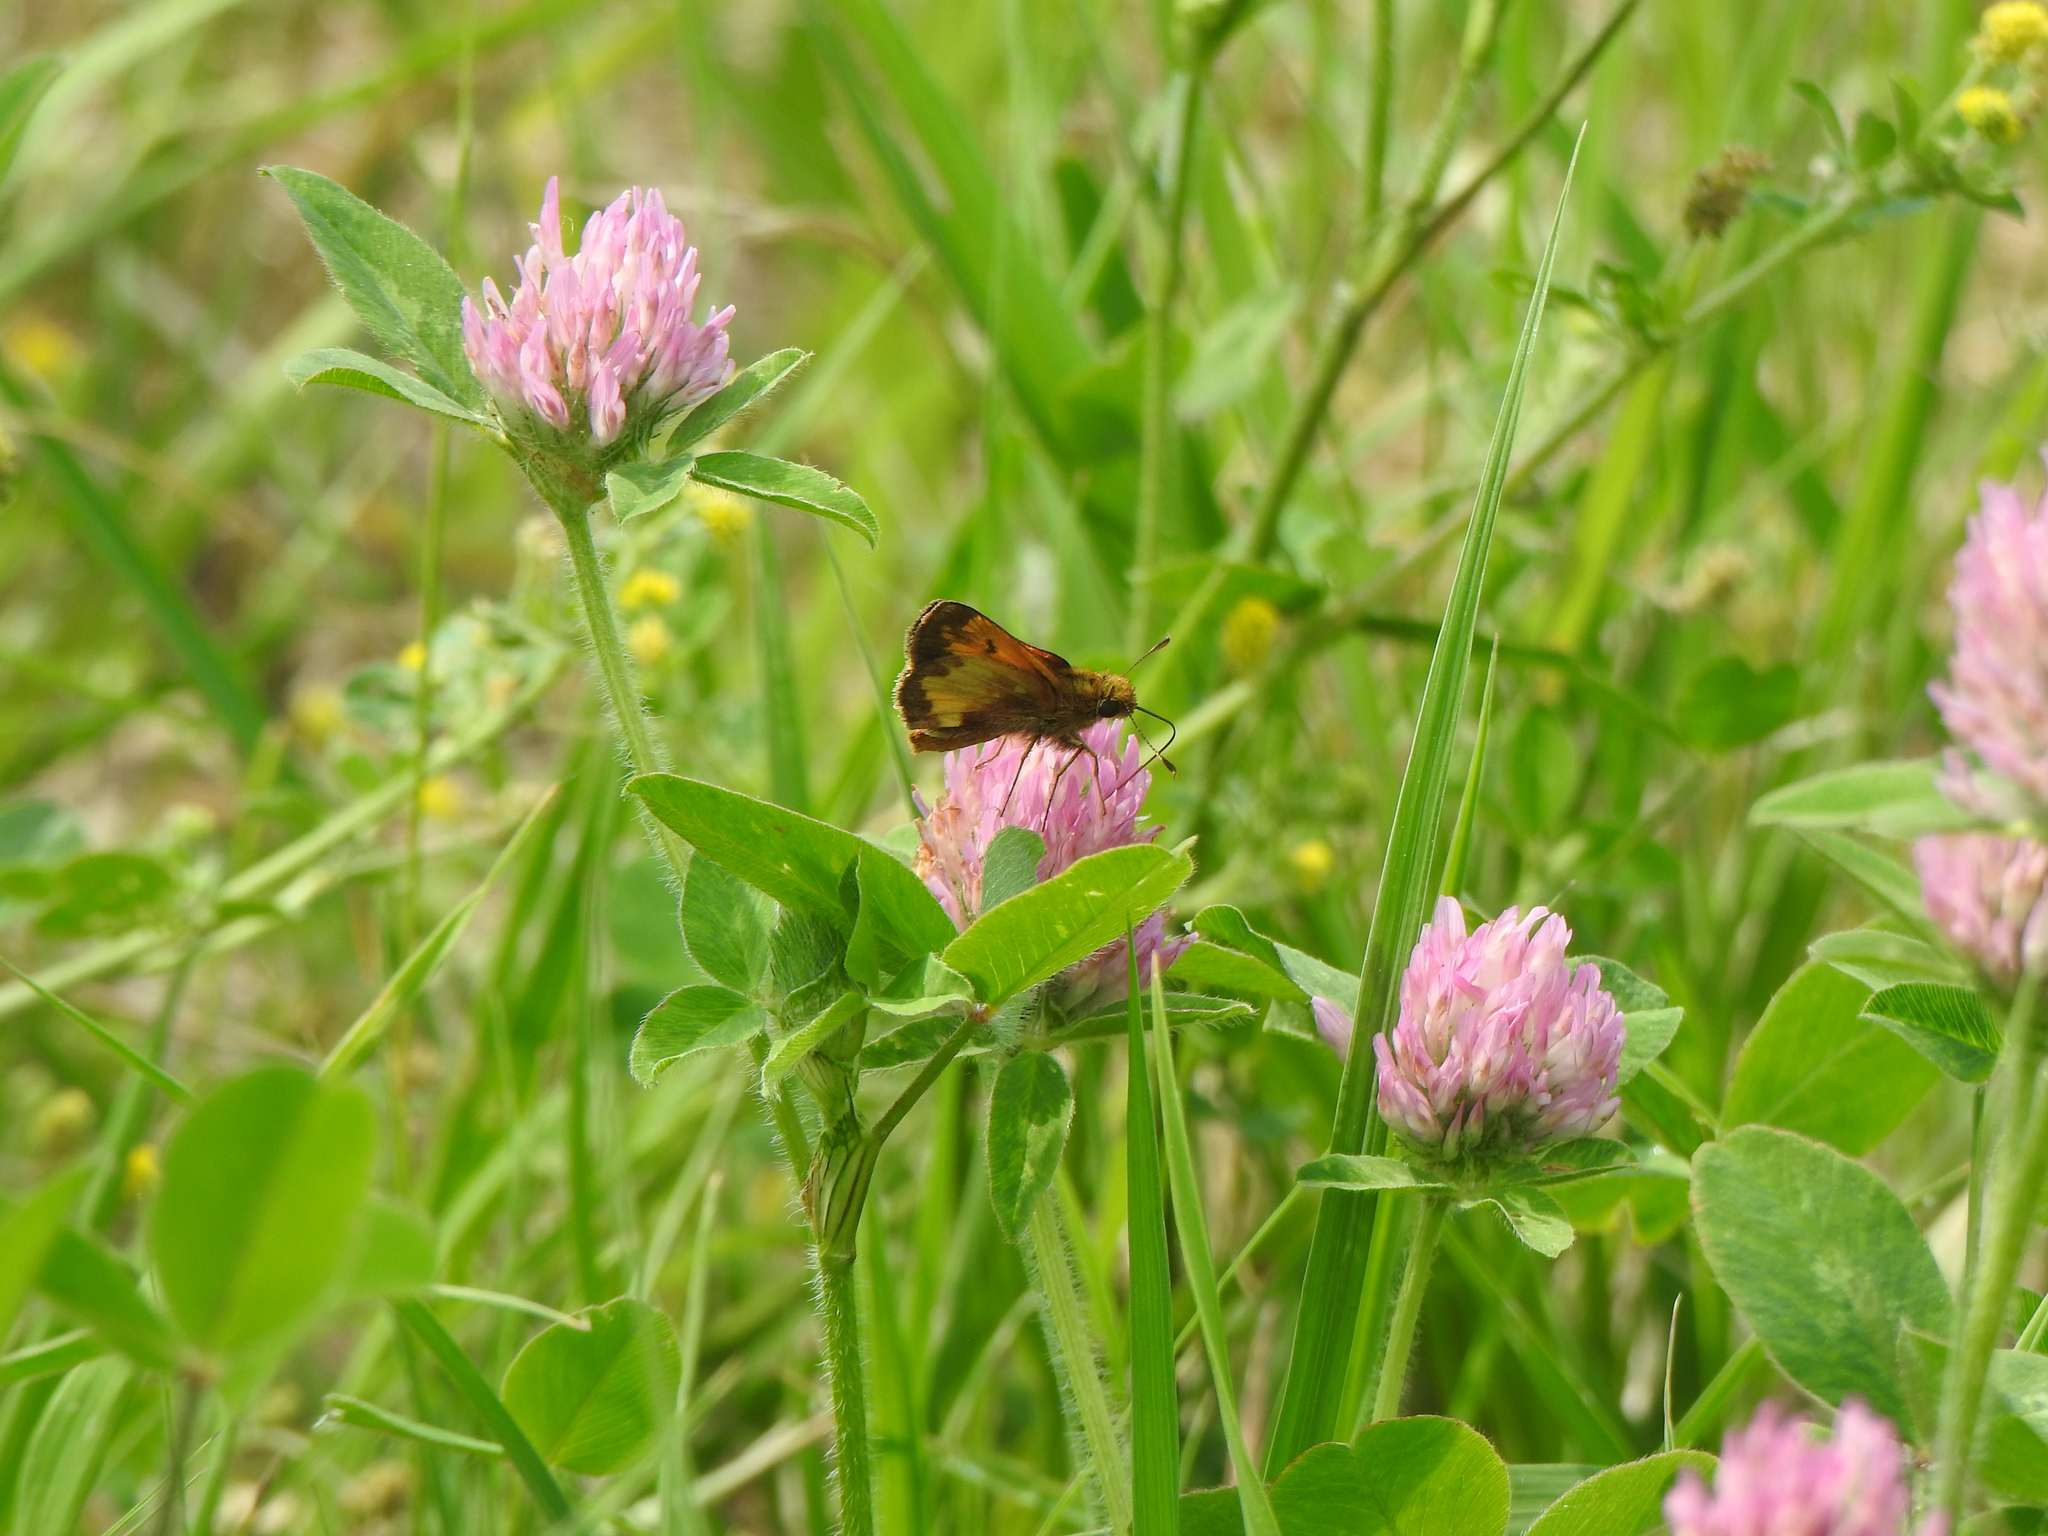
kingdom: Animalia
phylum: Arthropoda
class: Insecta
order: Lepidoptera
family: Hesperiidae
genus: Lon
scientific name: Lon hobomok
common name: Hobomok skipper
